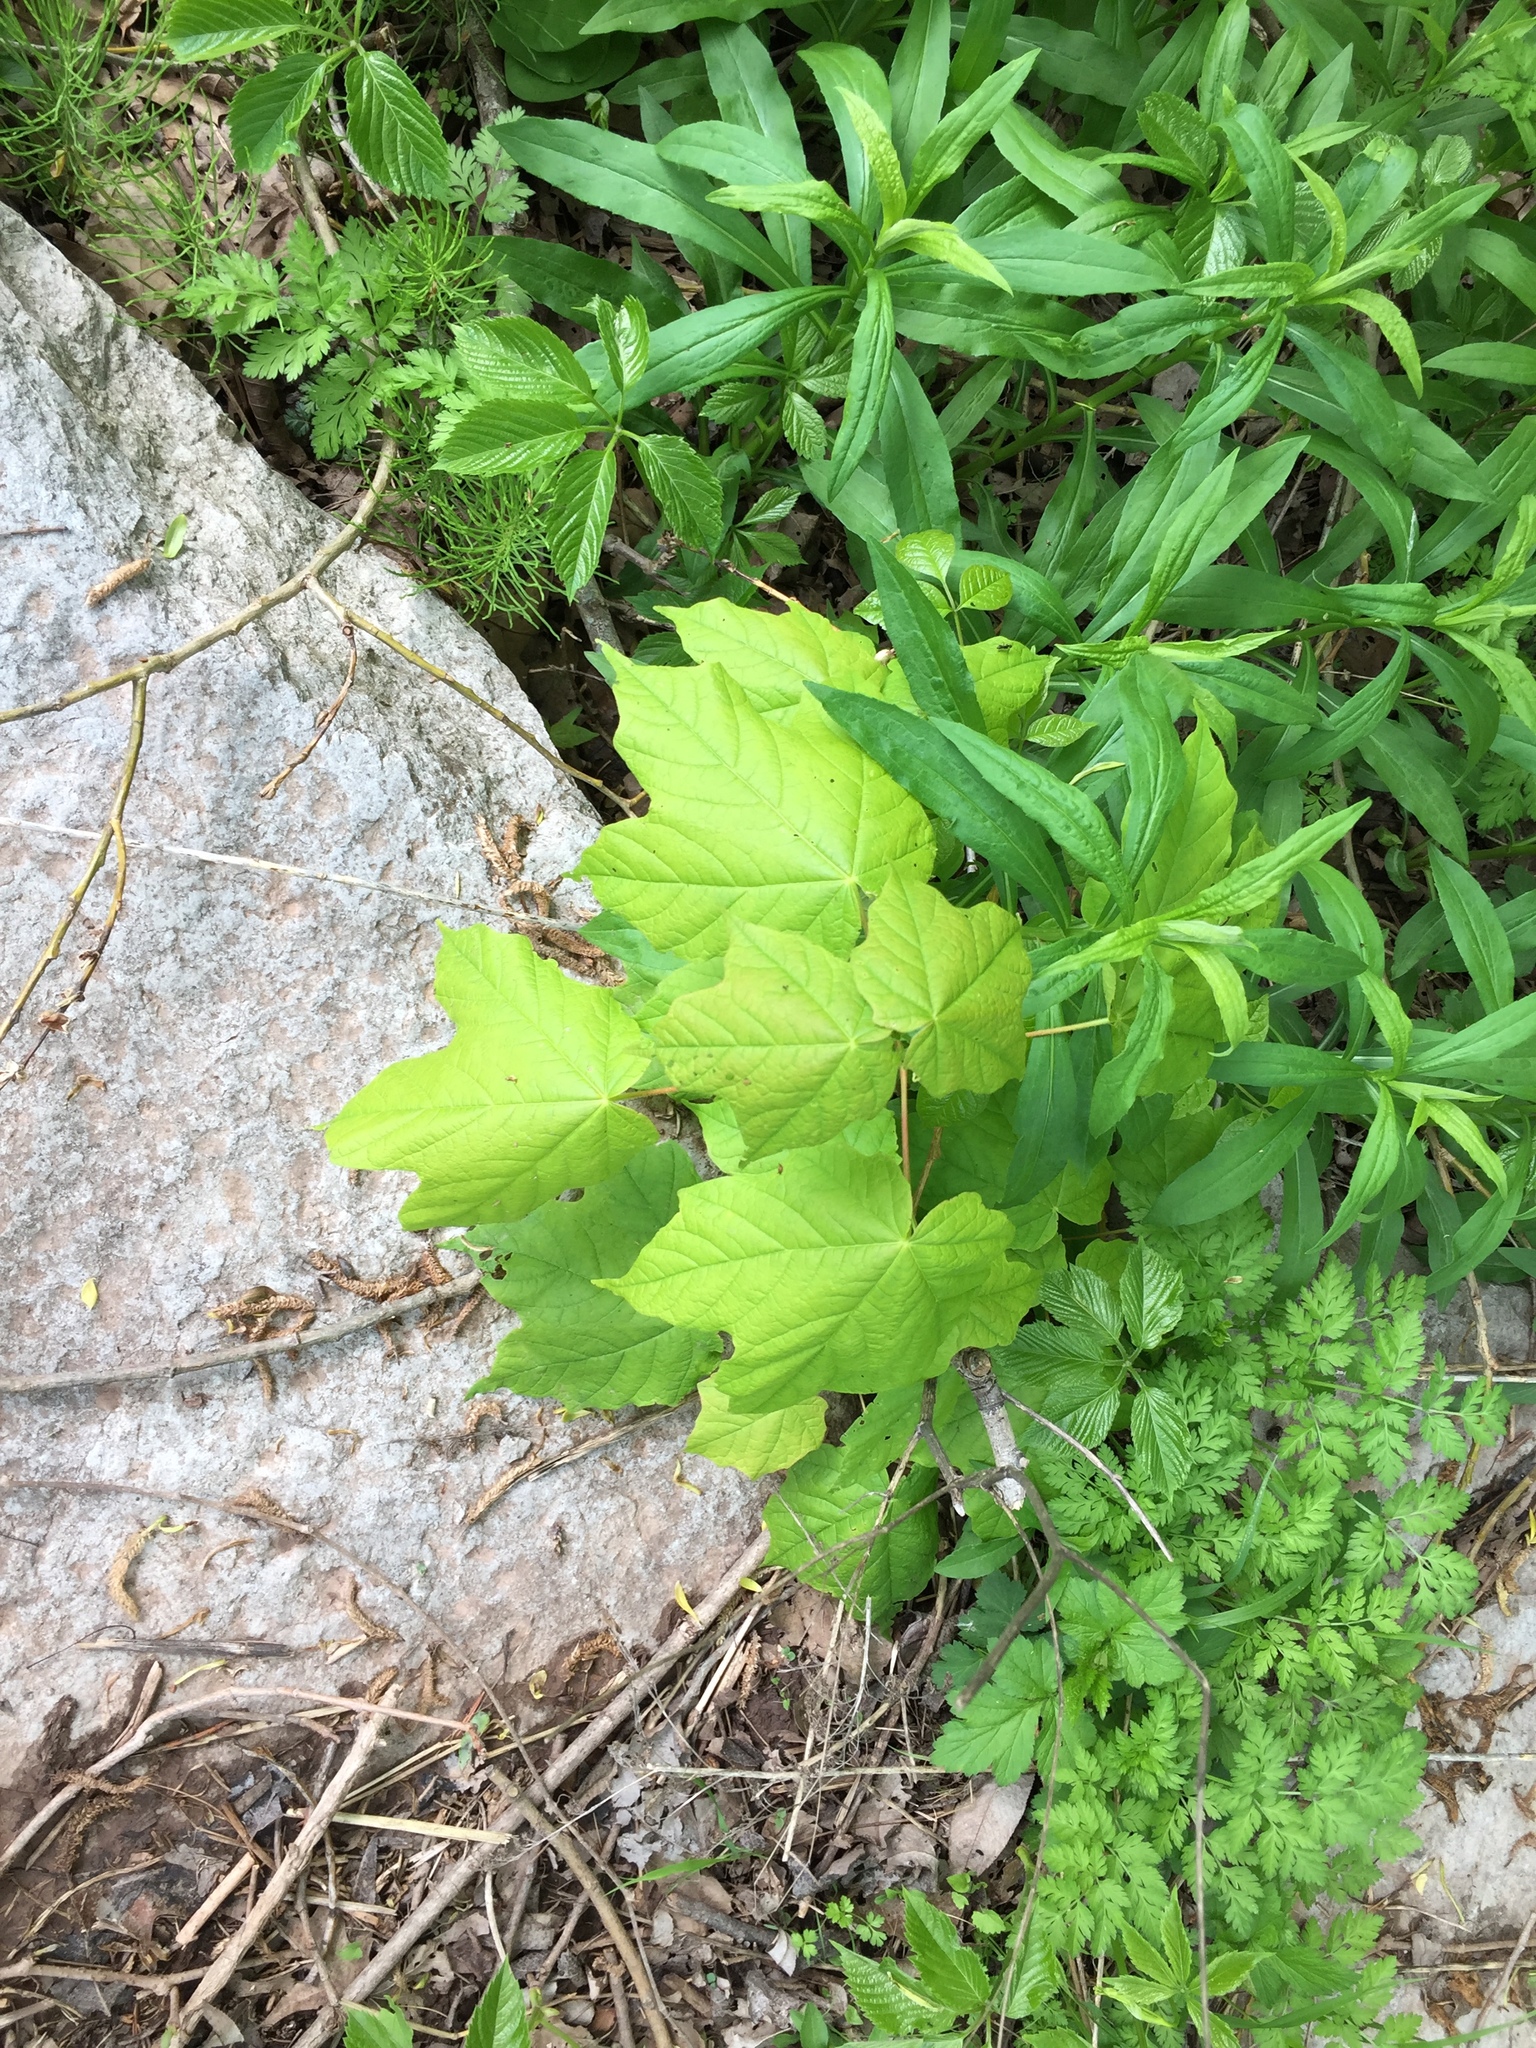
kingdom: Plantae
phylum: Tracheophyta
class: Magnoliopsida
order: Sapindales
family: Sapindaceae
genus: Acer
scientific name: Acer nigrum
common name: Black maple
